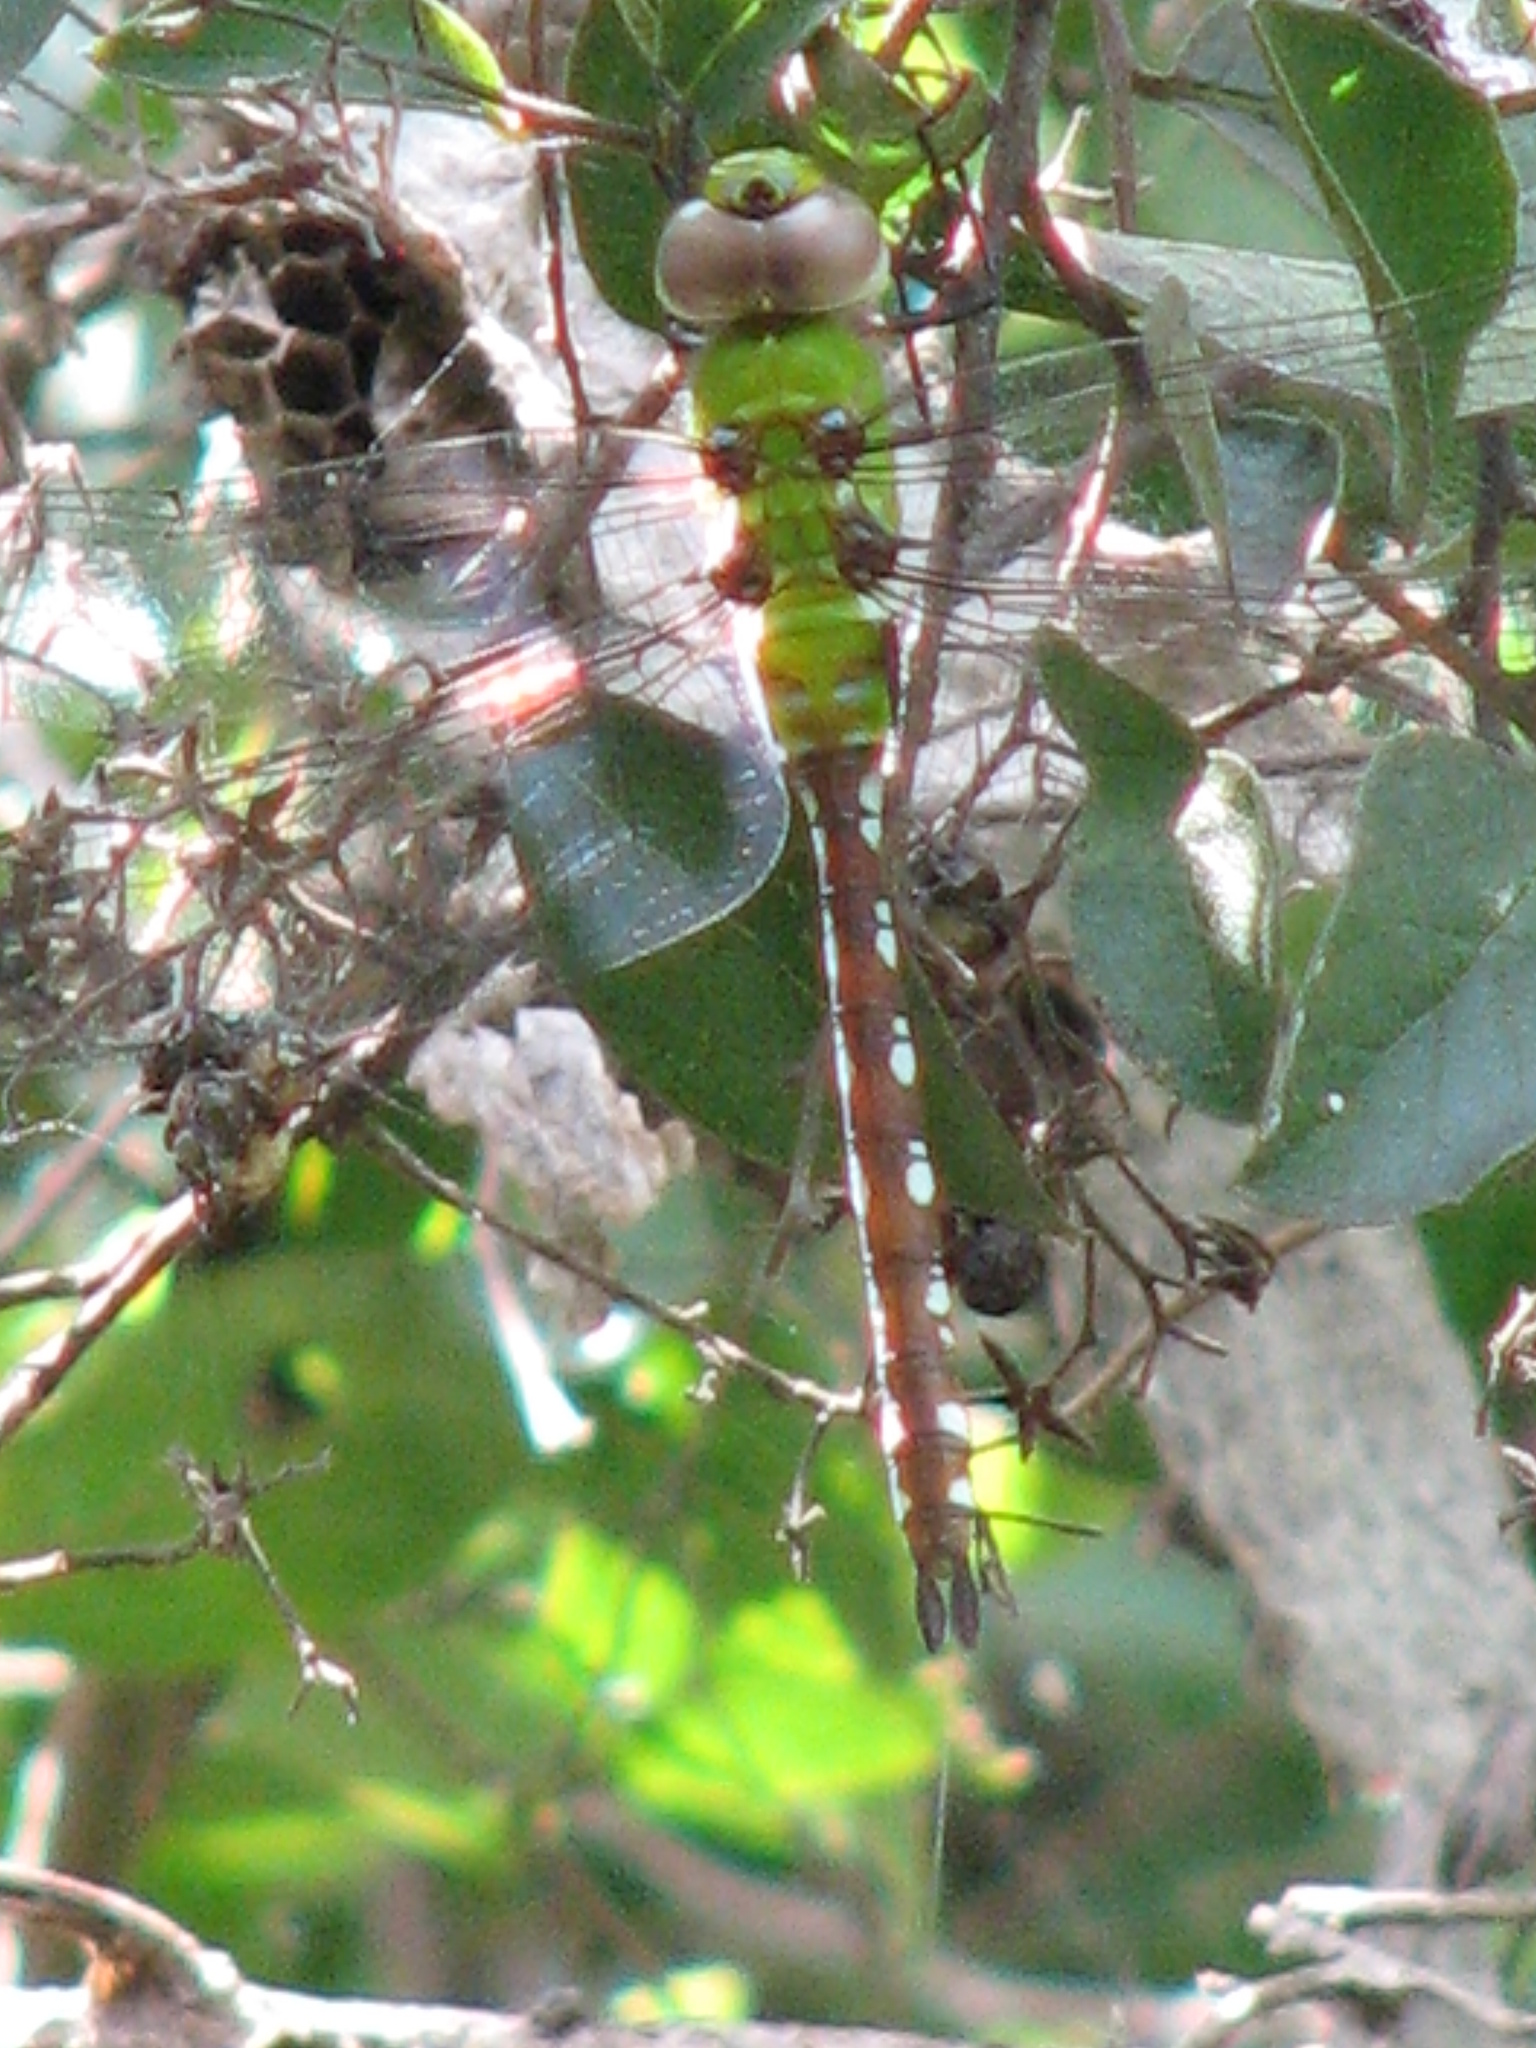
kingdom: Animalia
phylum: Arthropoda
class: Insecta
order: Odonata
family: Aeshnidae
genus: Anax
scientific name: Anax amazili
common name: Amazon darner
